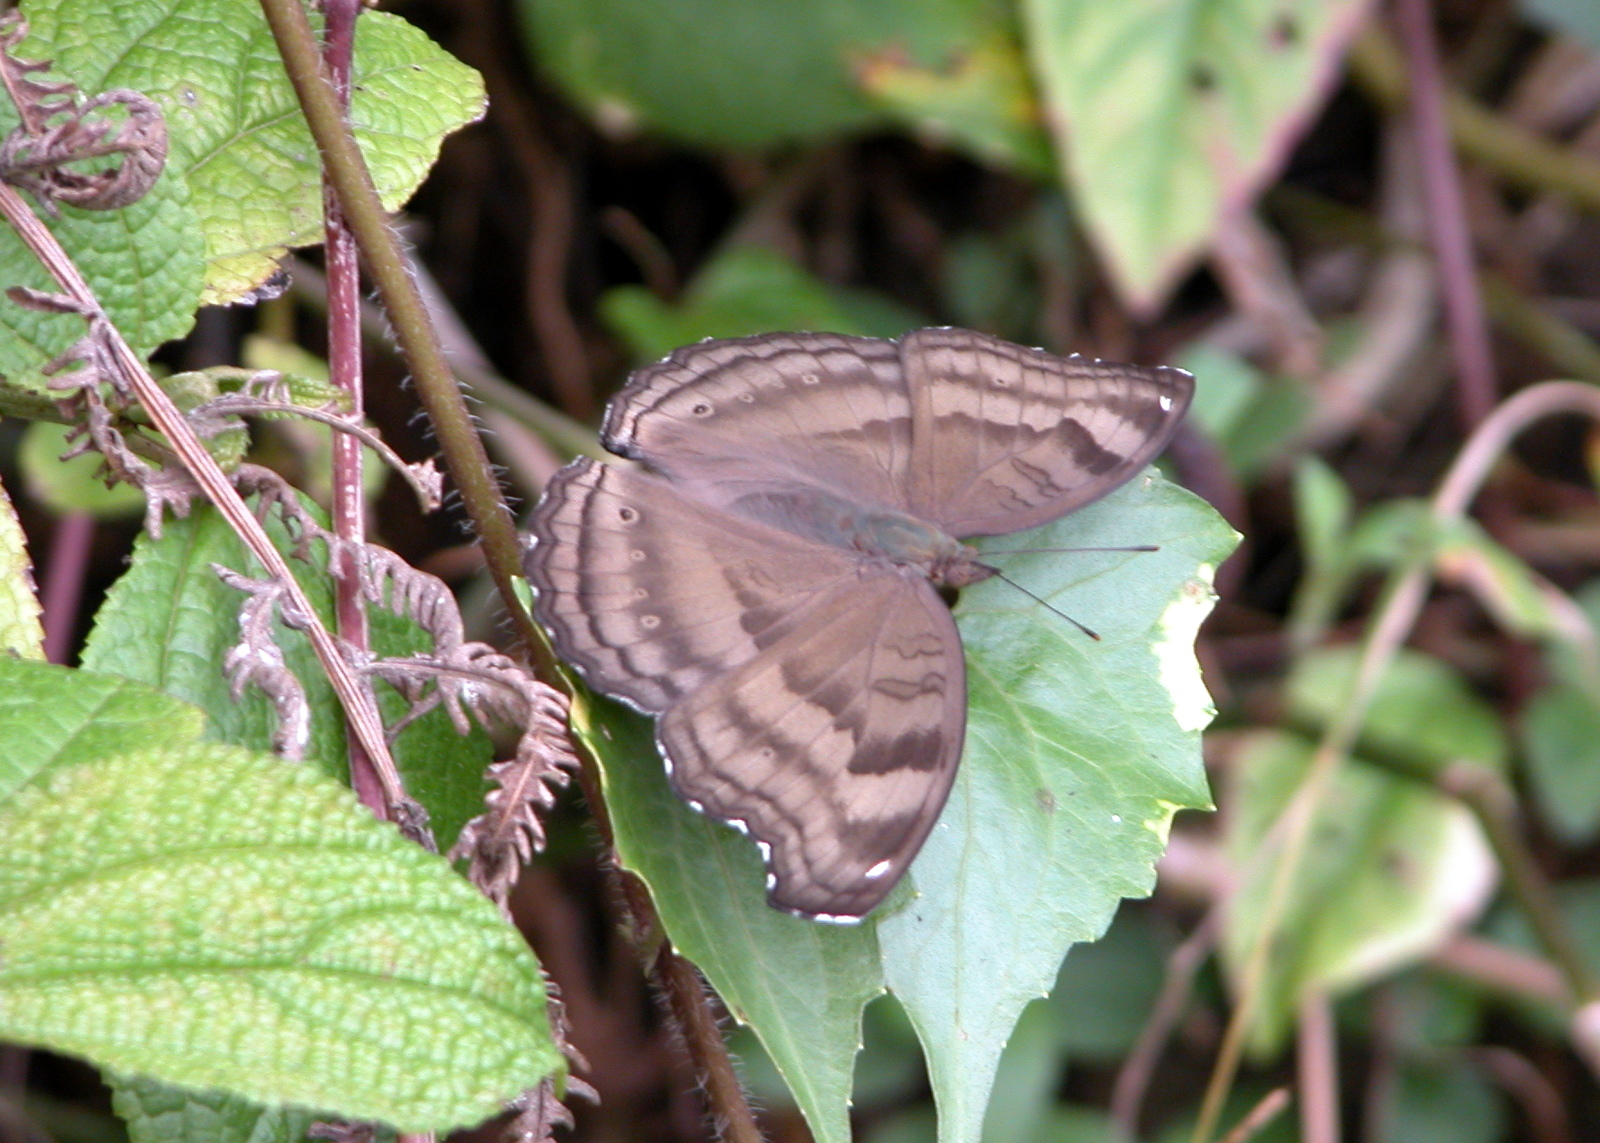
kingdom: Animalia
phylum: Arthropoda
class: Insecta
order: Lepidoptera
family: Nymphalidae
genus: Junonia
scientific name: Junonia iphita
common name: Chocolate pansy
